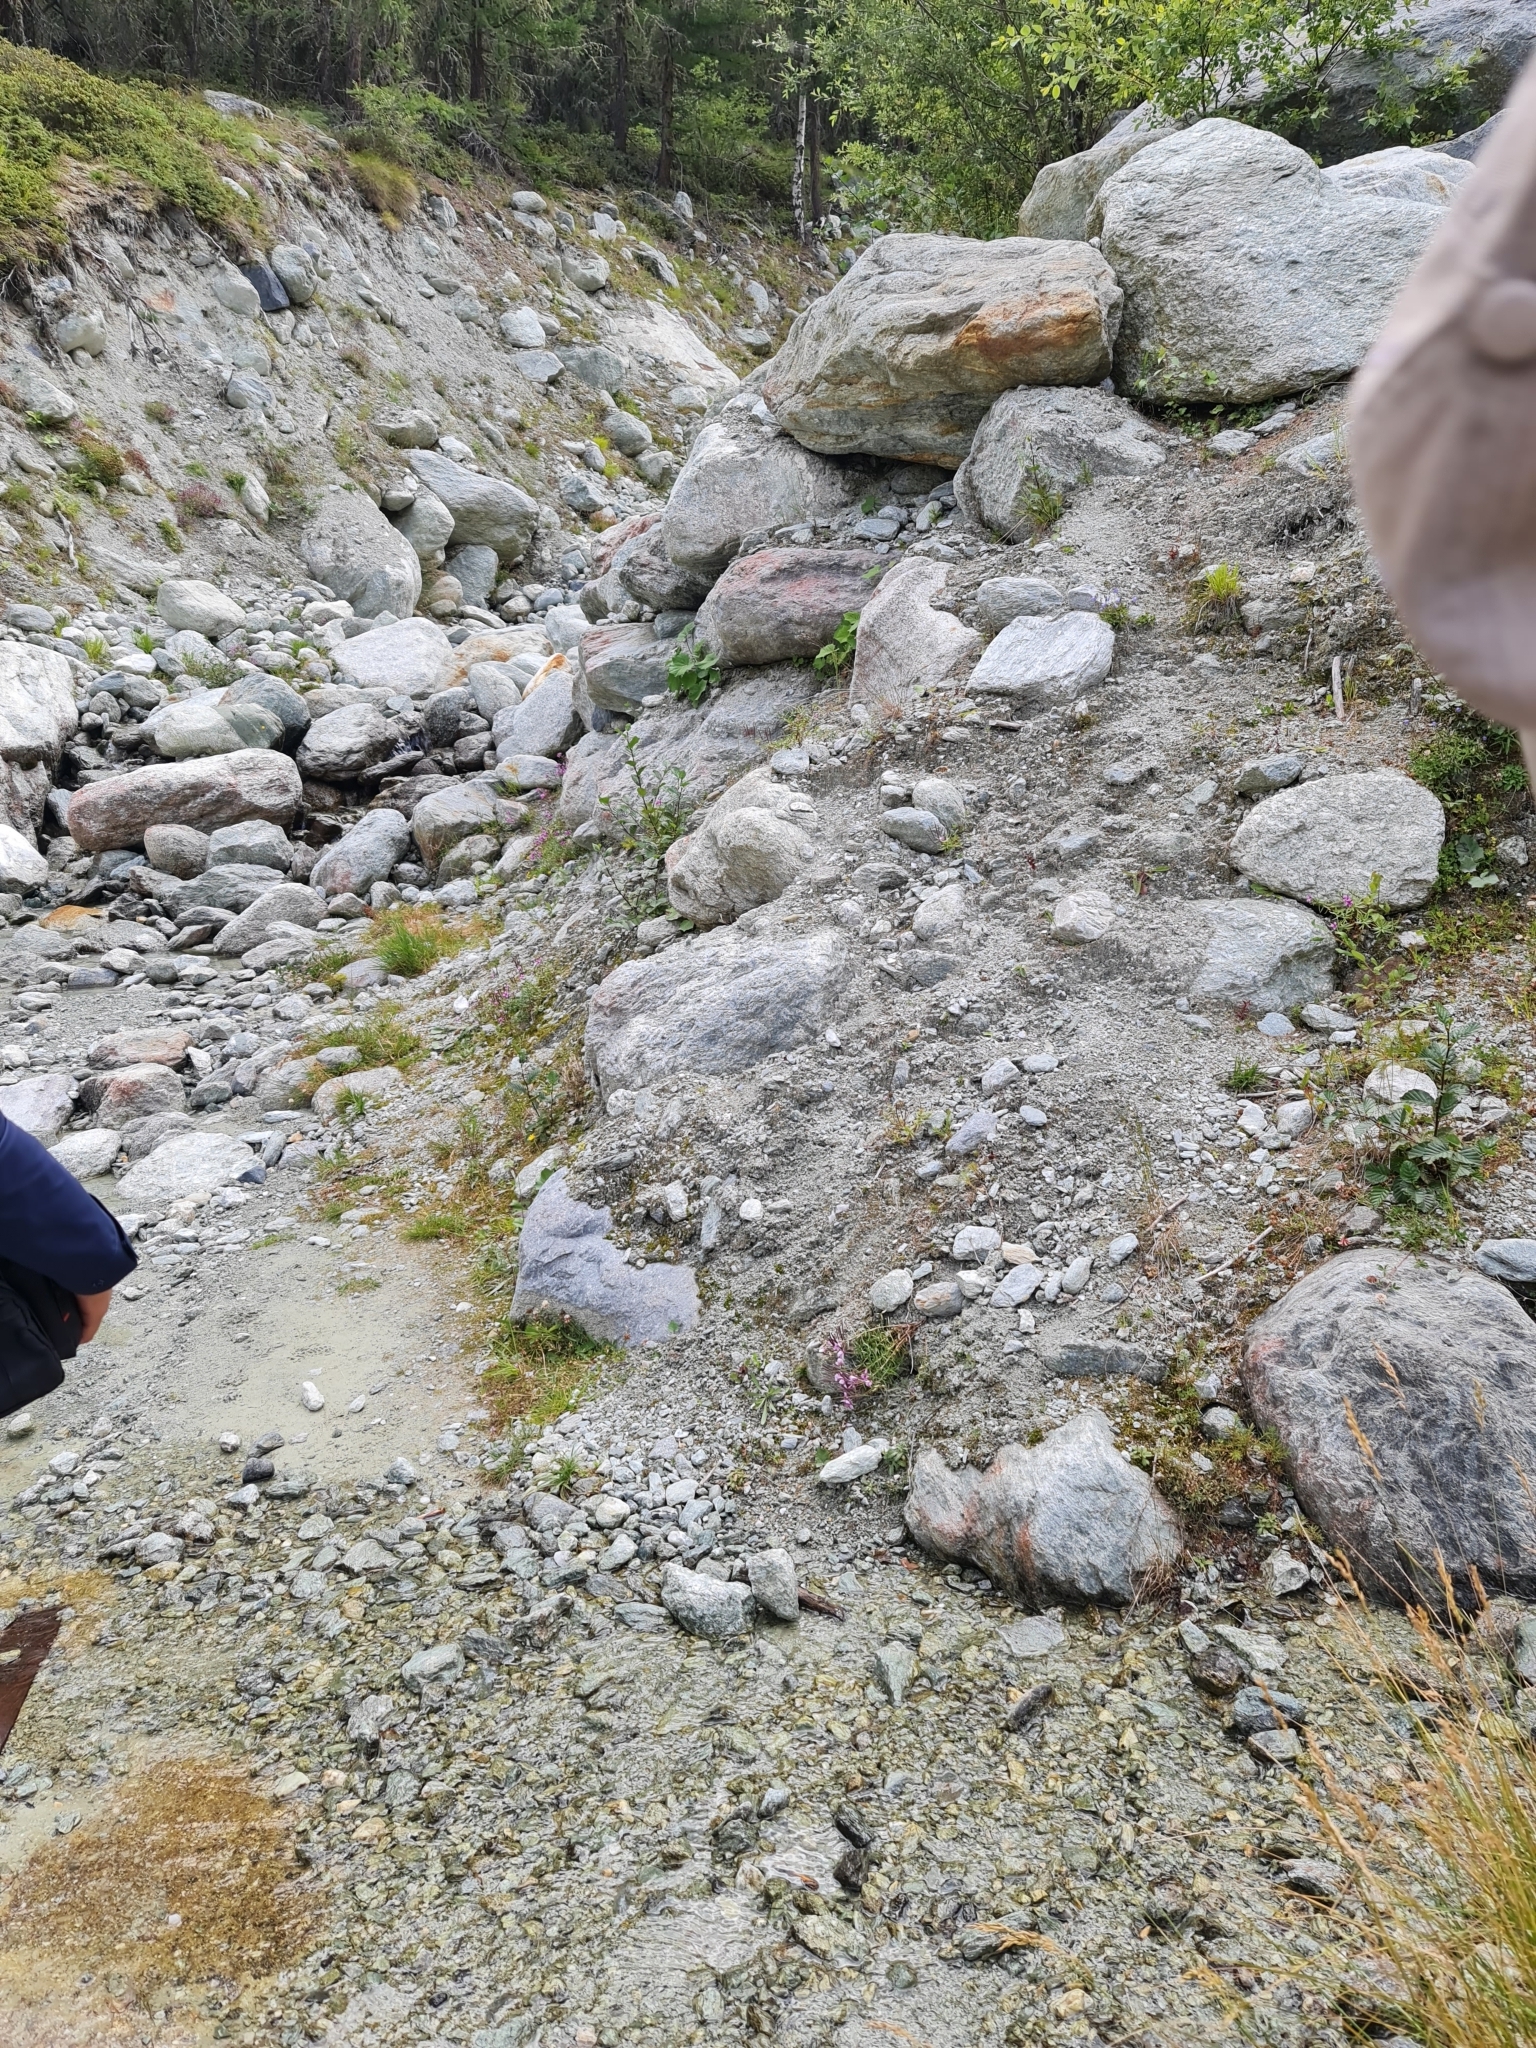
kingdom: Plantae
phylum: Tracheophyta
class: Magnoliopsida
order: Myrtales
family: Onagraceae
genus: Chamaenerion
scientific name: Chamaenerion fleischeri
